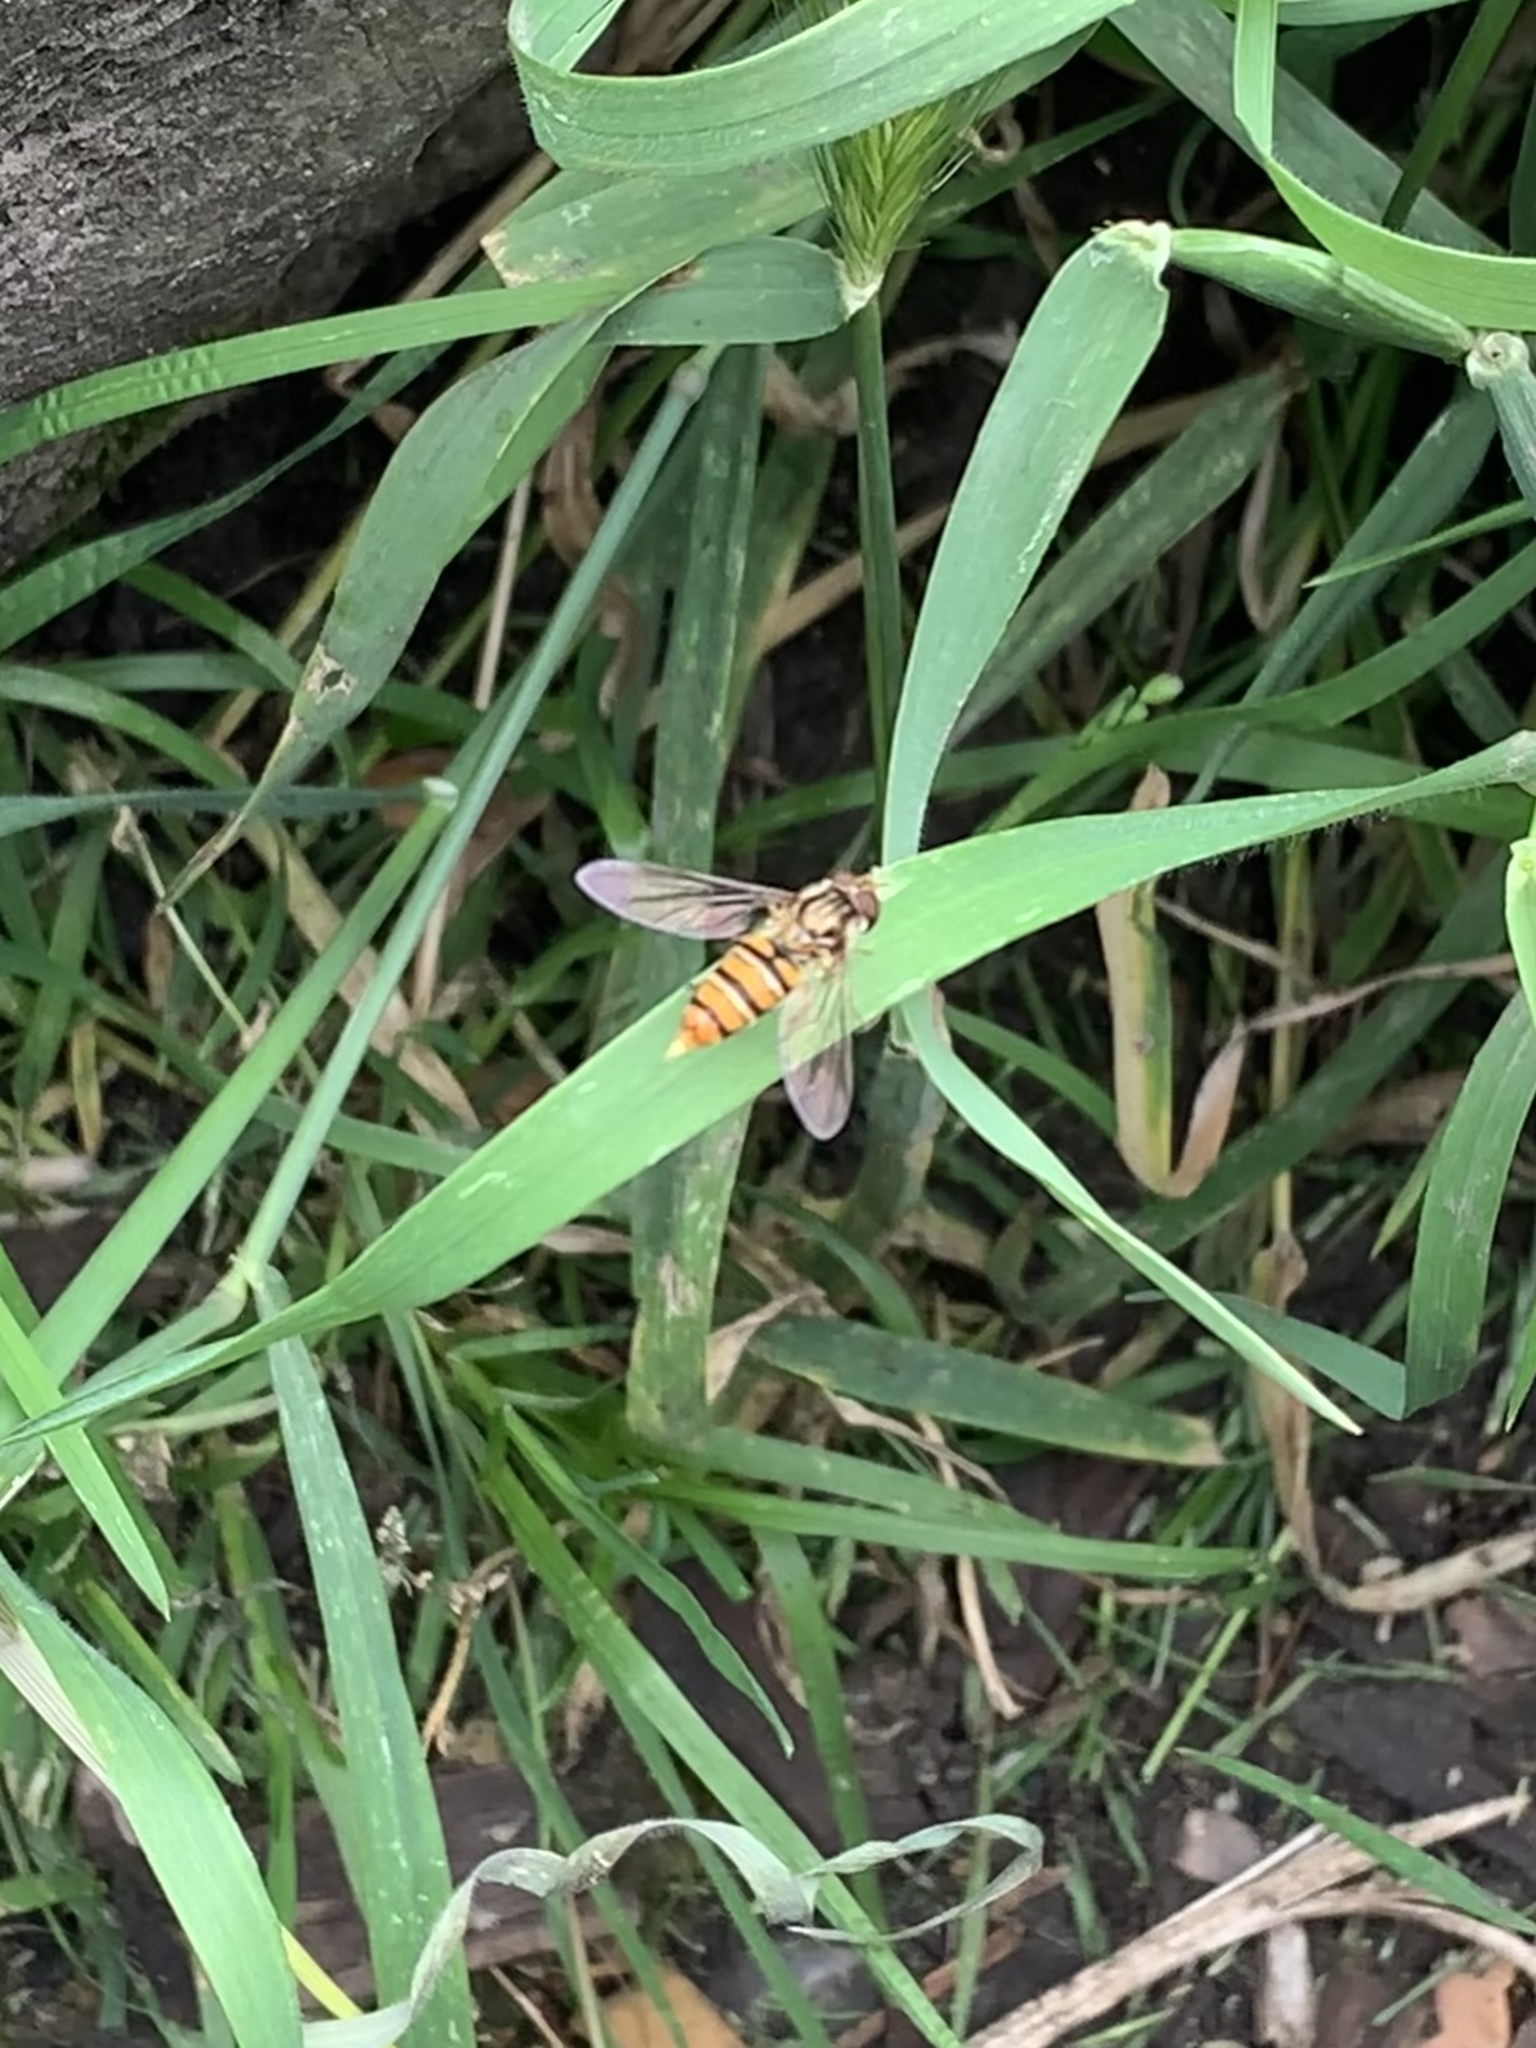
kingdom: Animalia
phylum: Arthropoda
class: Insecta
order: Diptera
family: Syrphidae
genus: Episyrphus
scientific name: Episyrphus balteatus
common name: Marmalade hoverfly
